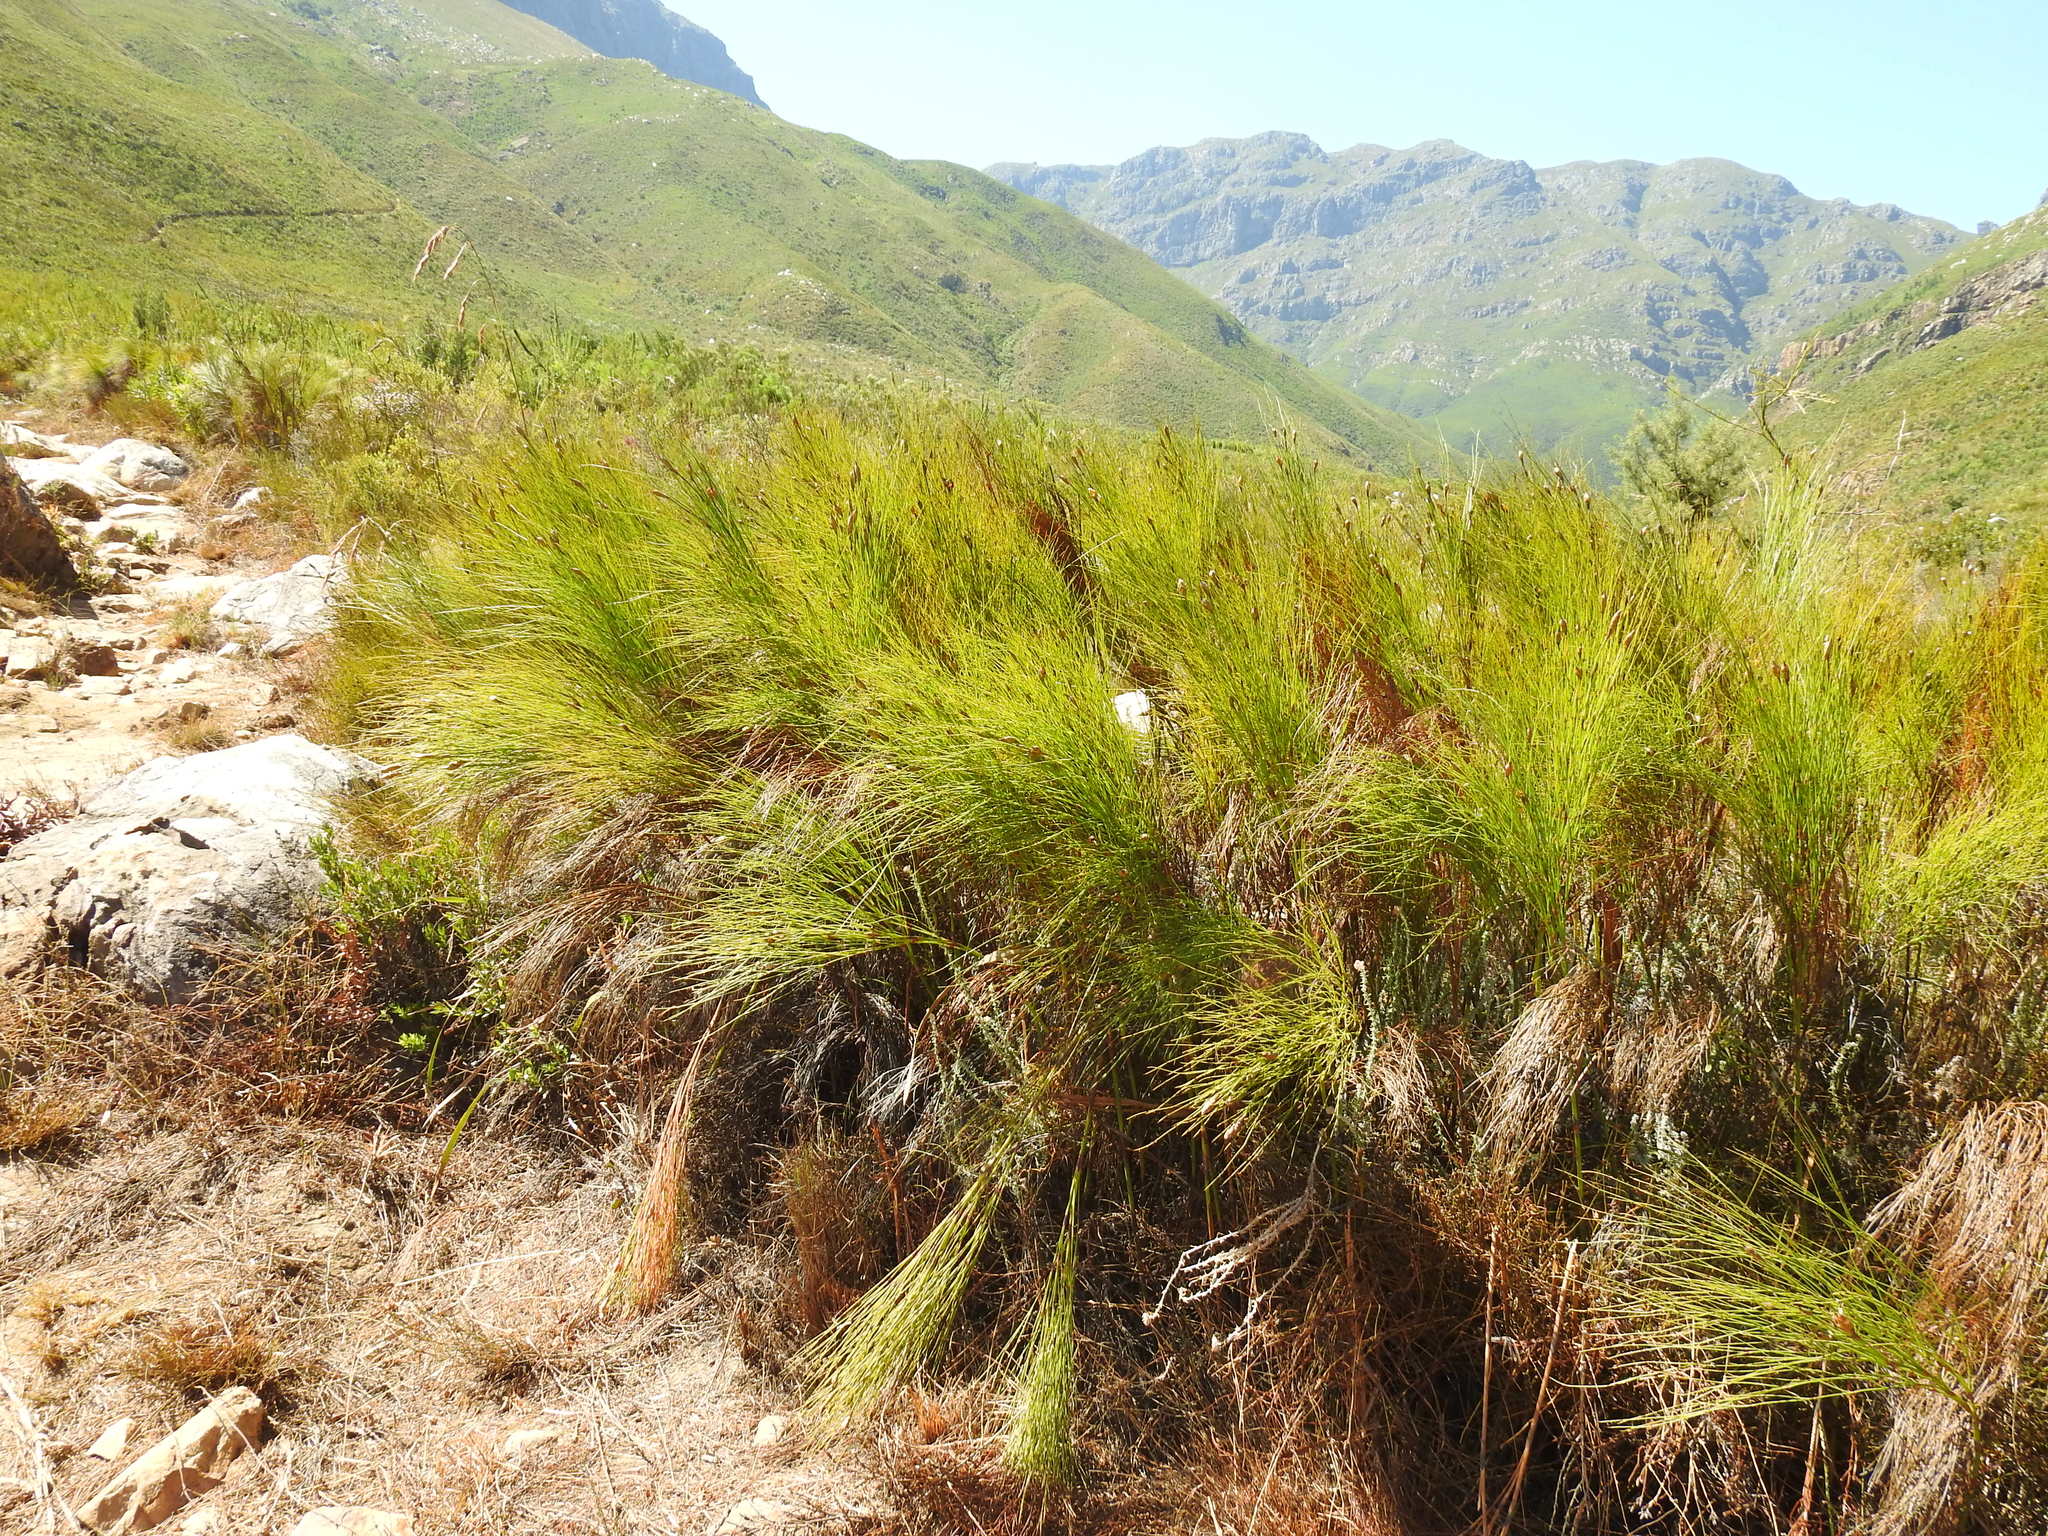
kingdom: Plantae
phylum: Tracheophyta
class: Liliopsida
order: Poales
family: Restionaceae
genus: Cannomois
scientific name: Cannomois virgata
